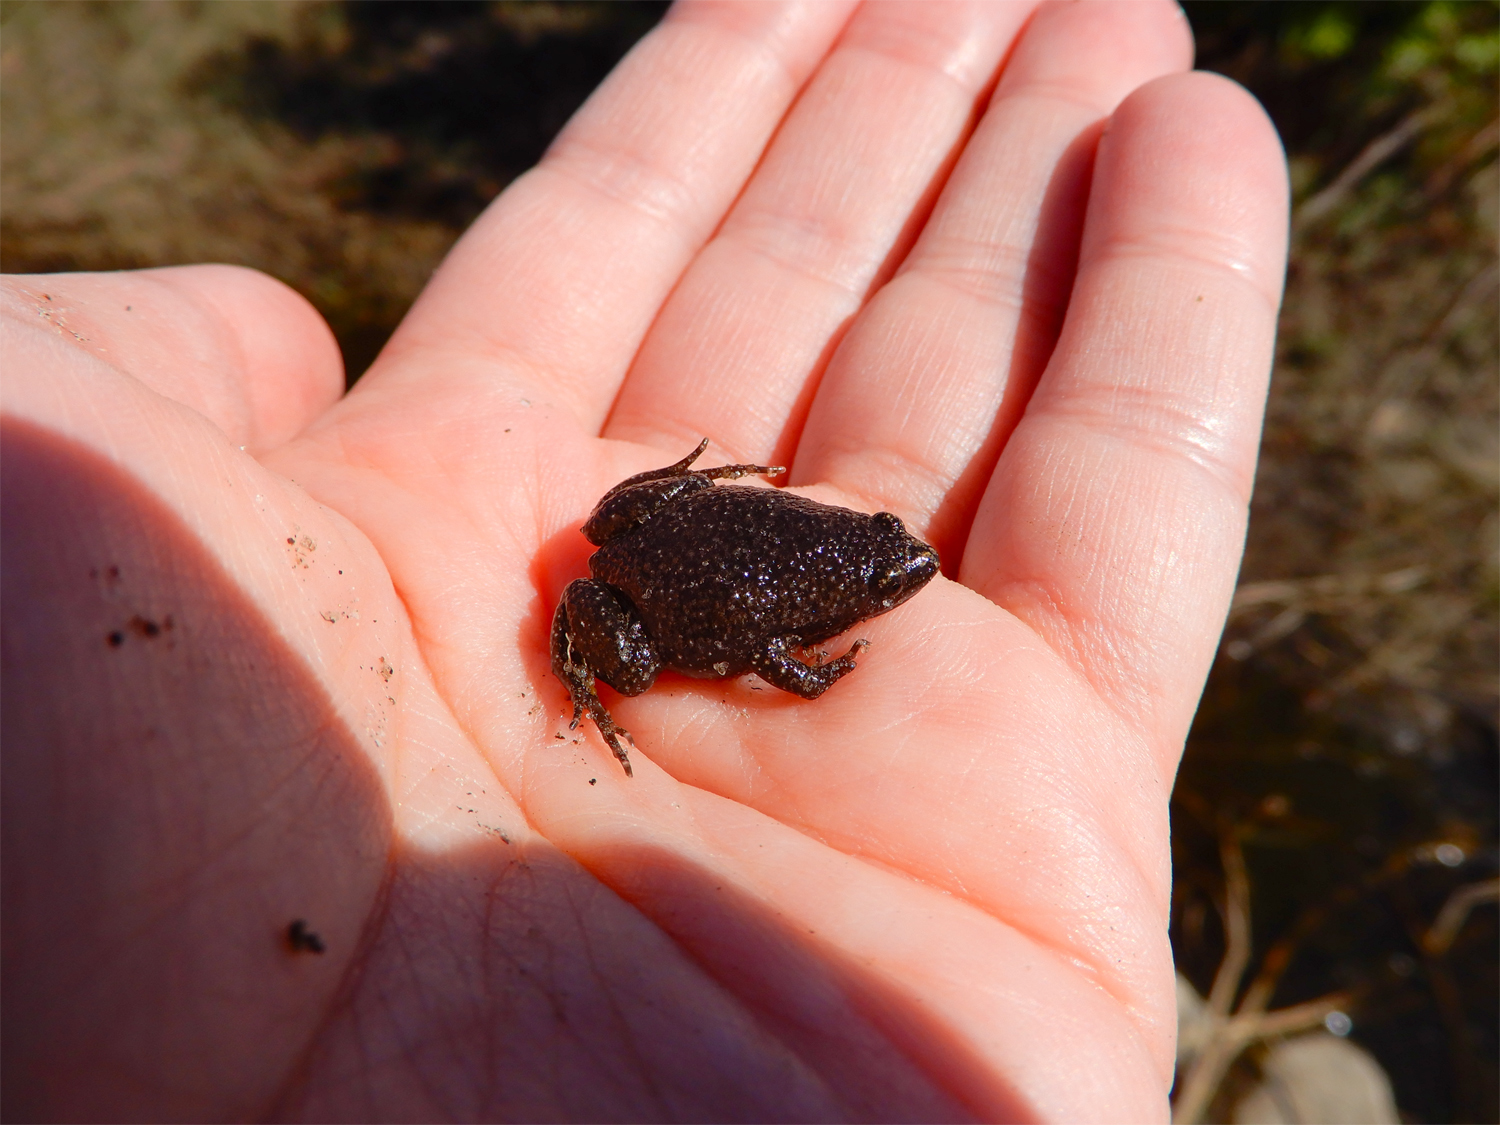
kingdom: Animalia
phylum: Chordata
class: Amphibia
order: Anura
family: Microhylidae
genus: Gastrophryne
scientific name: Gastrophryne carolinensis
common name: Eastern narrowmouth toad
